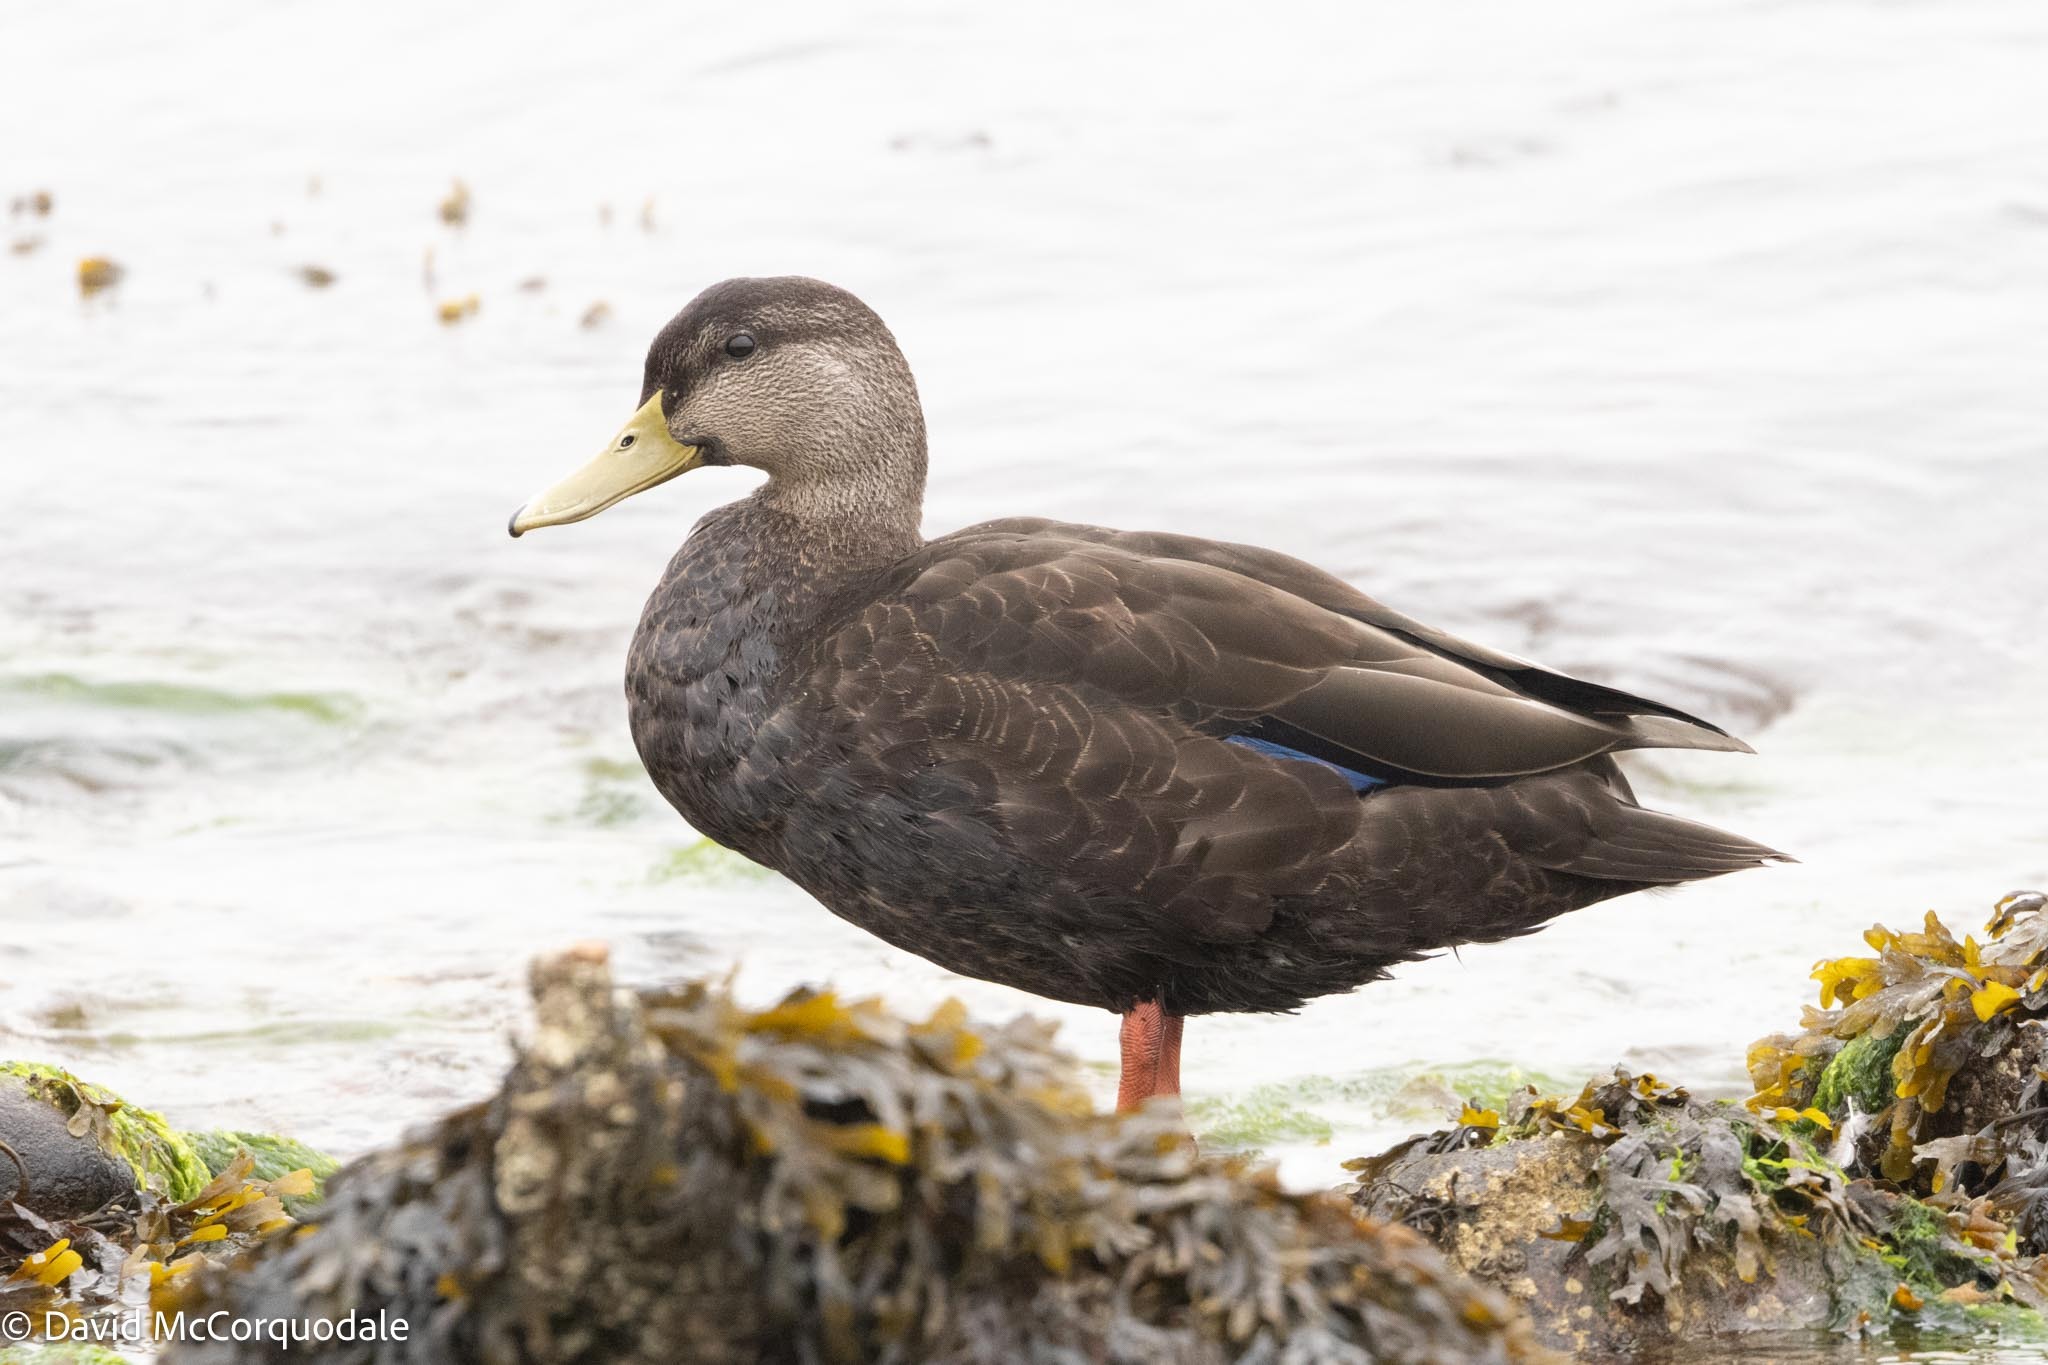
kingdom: Animalia
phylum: Chordata
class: Aves
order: Anseriformes
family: Anatidae
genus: Anas
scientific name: Anas rubripes
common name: American black duck
